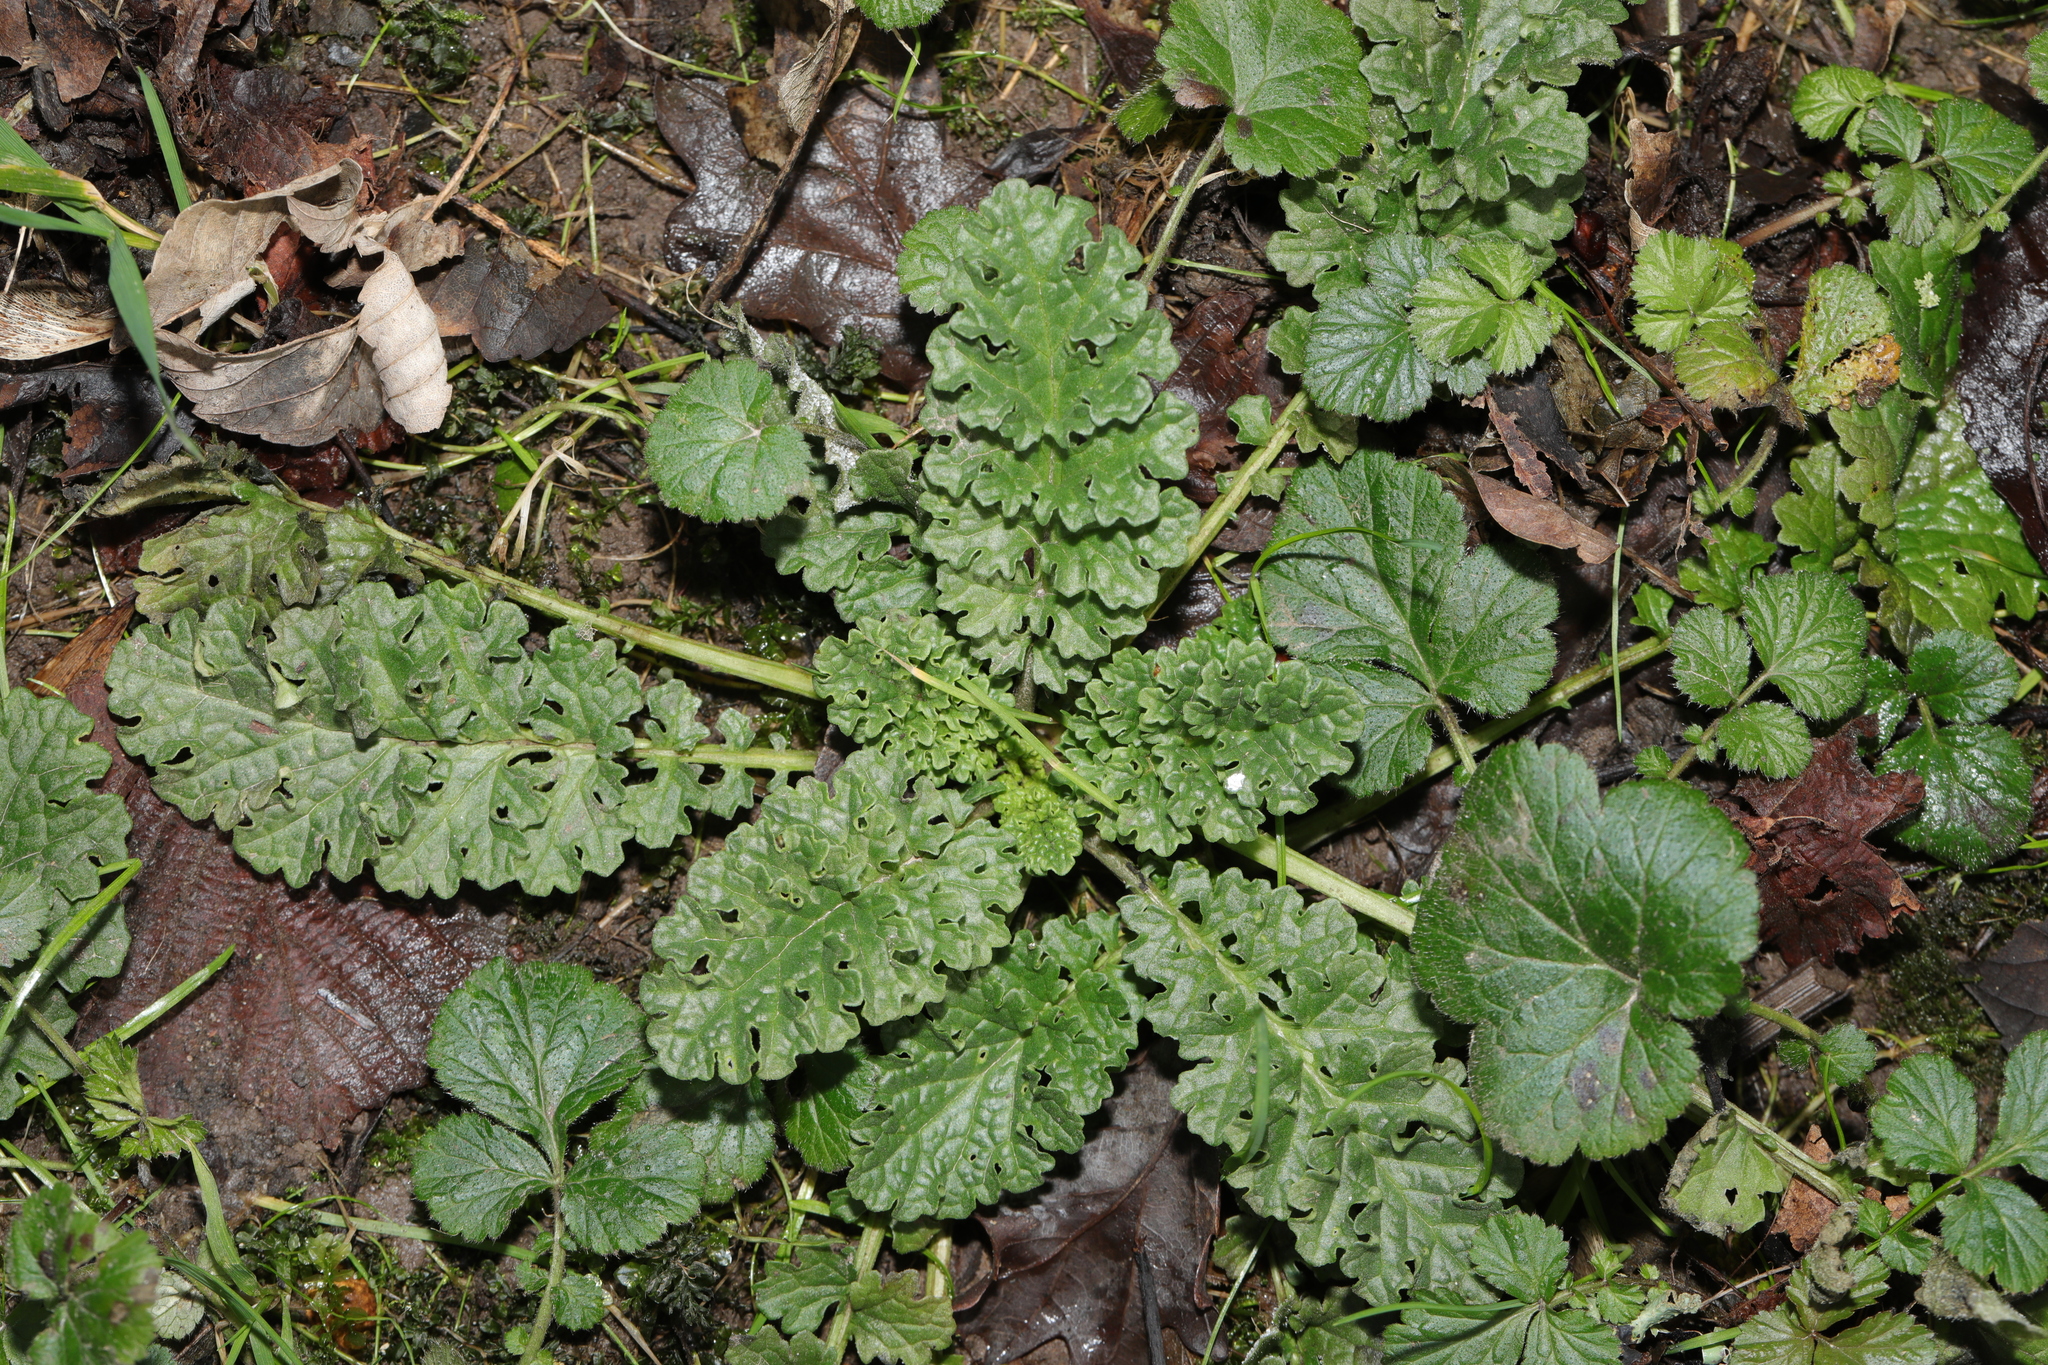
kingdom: Plantae
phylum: Tracheophyta
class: Magnoliopsida
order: Asterales
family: Asteraceae
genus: Jacobaea
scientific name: Jacobaea vulgaris
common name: Stinking willie
